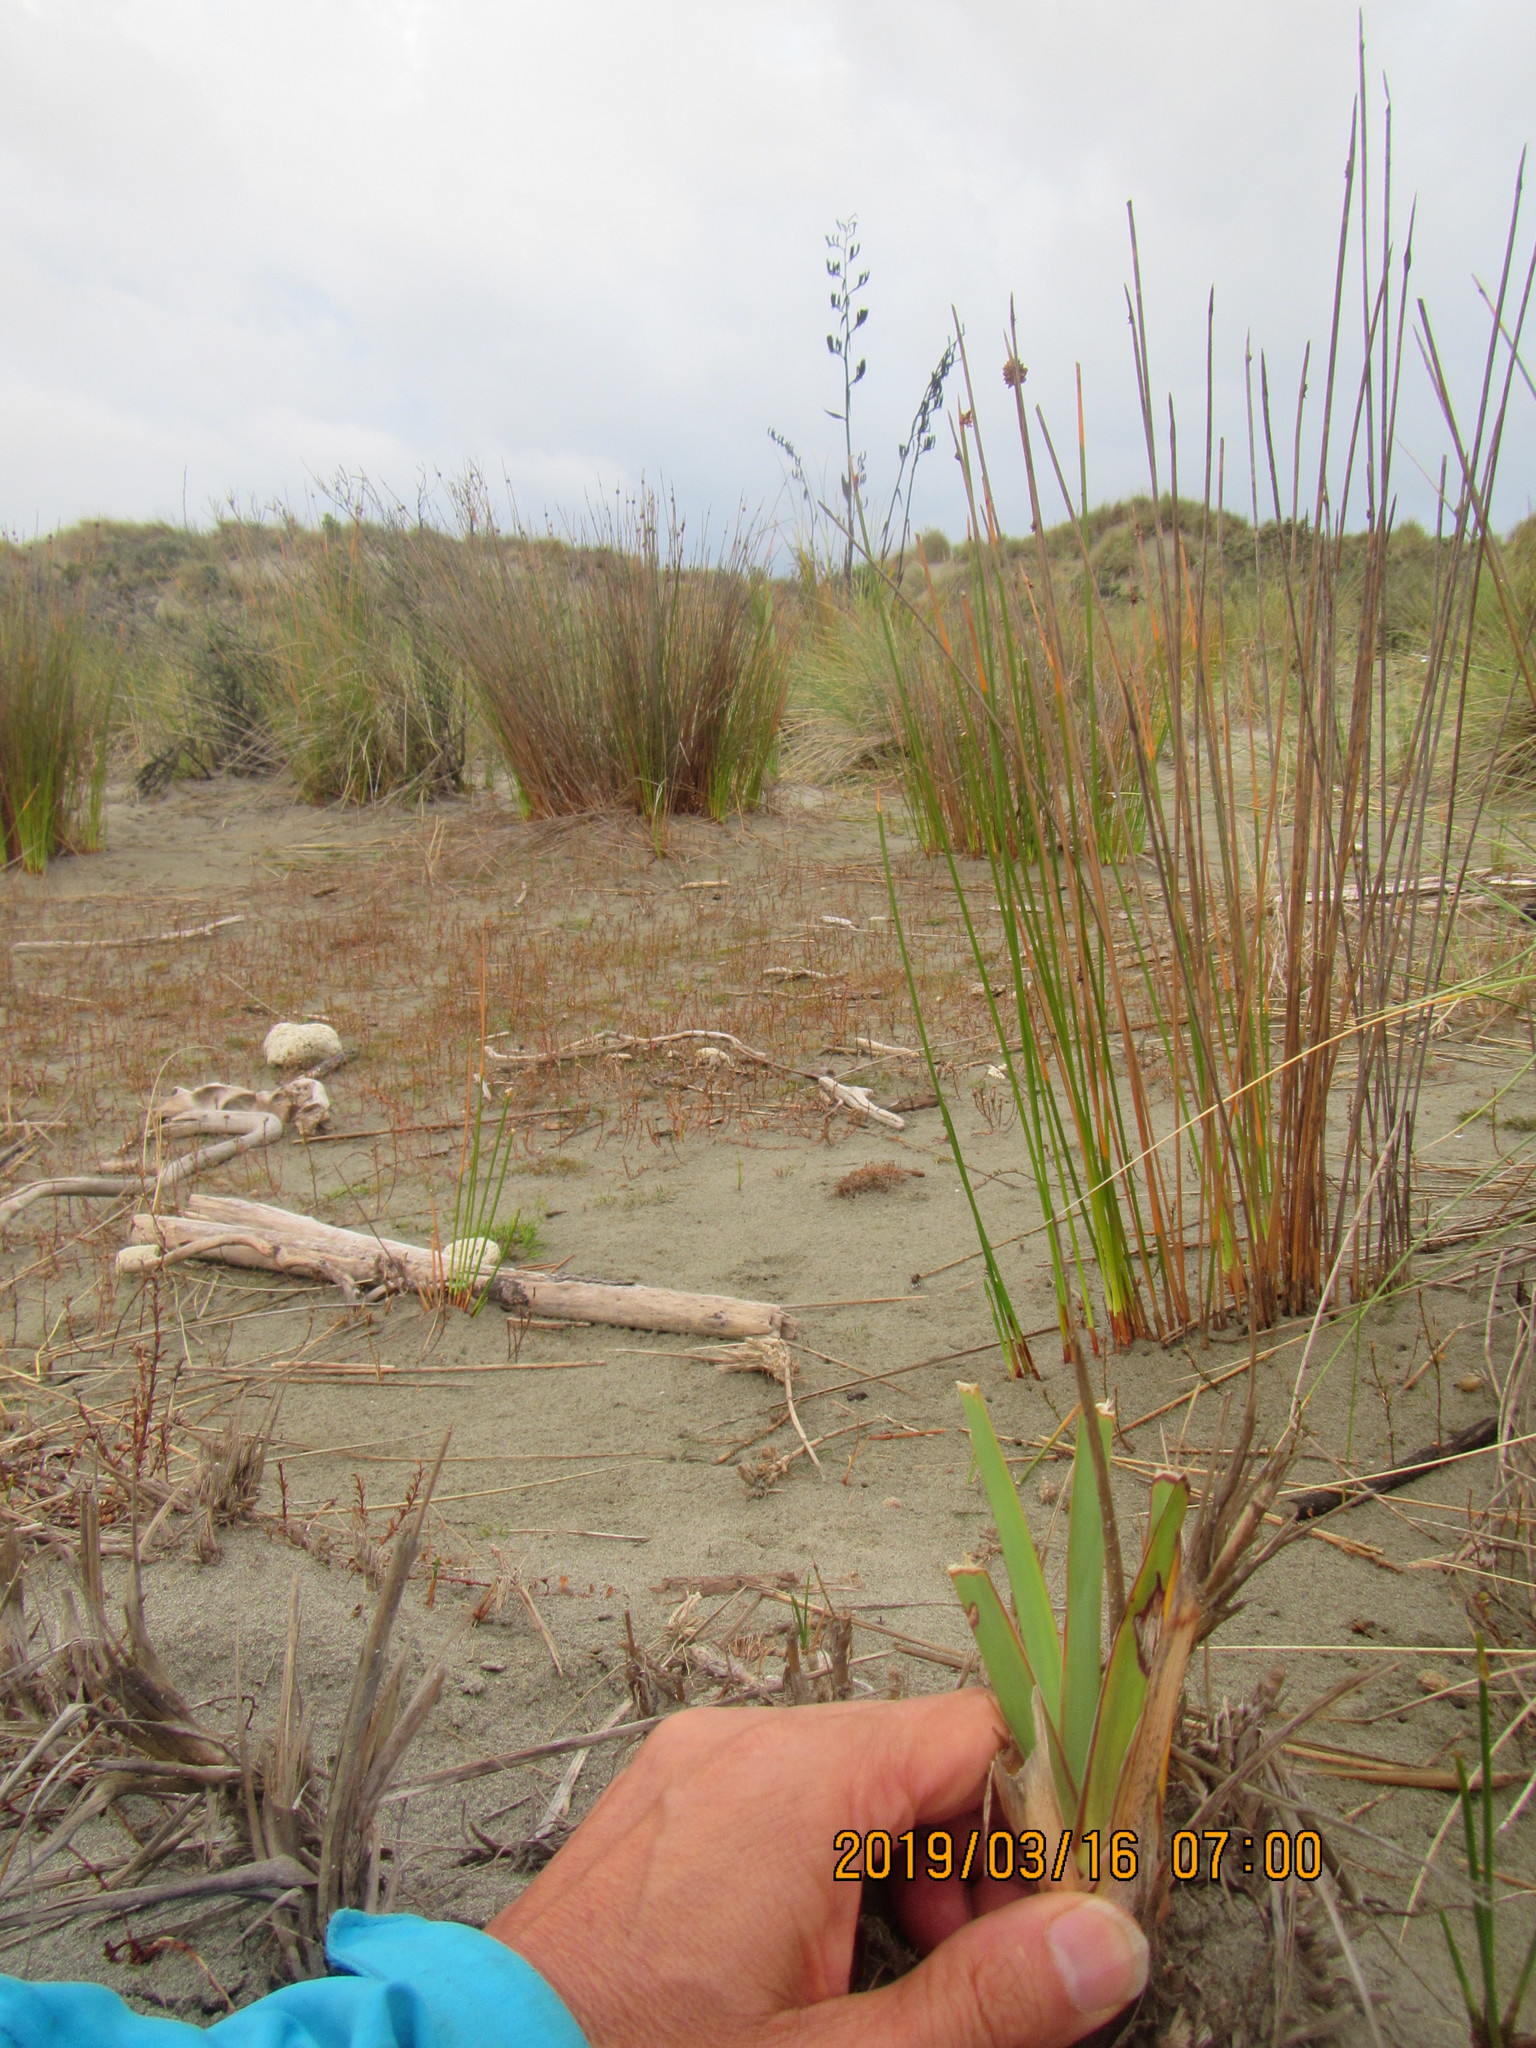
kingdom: Plantae
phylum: Tracheophyta
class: Liliopsida
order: Asparagales
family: Asphodelaceae
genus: Phormium
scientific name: Phormium tenax
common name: New zealand flax
